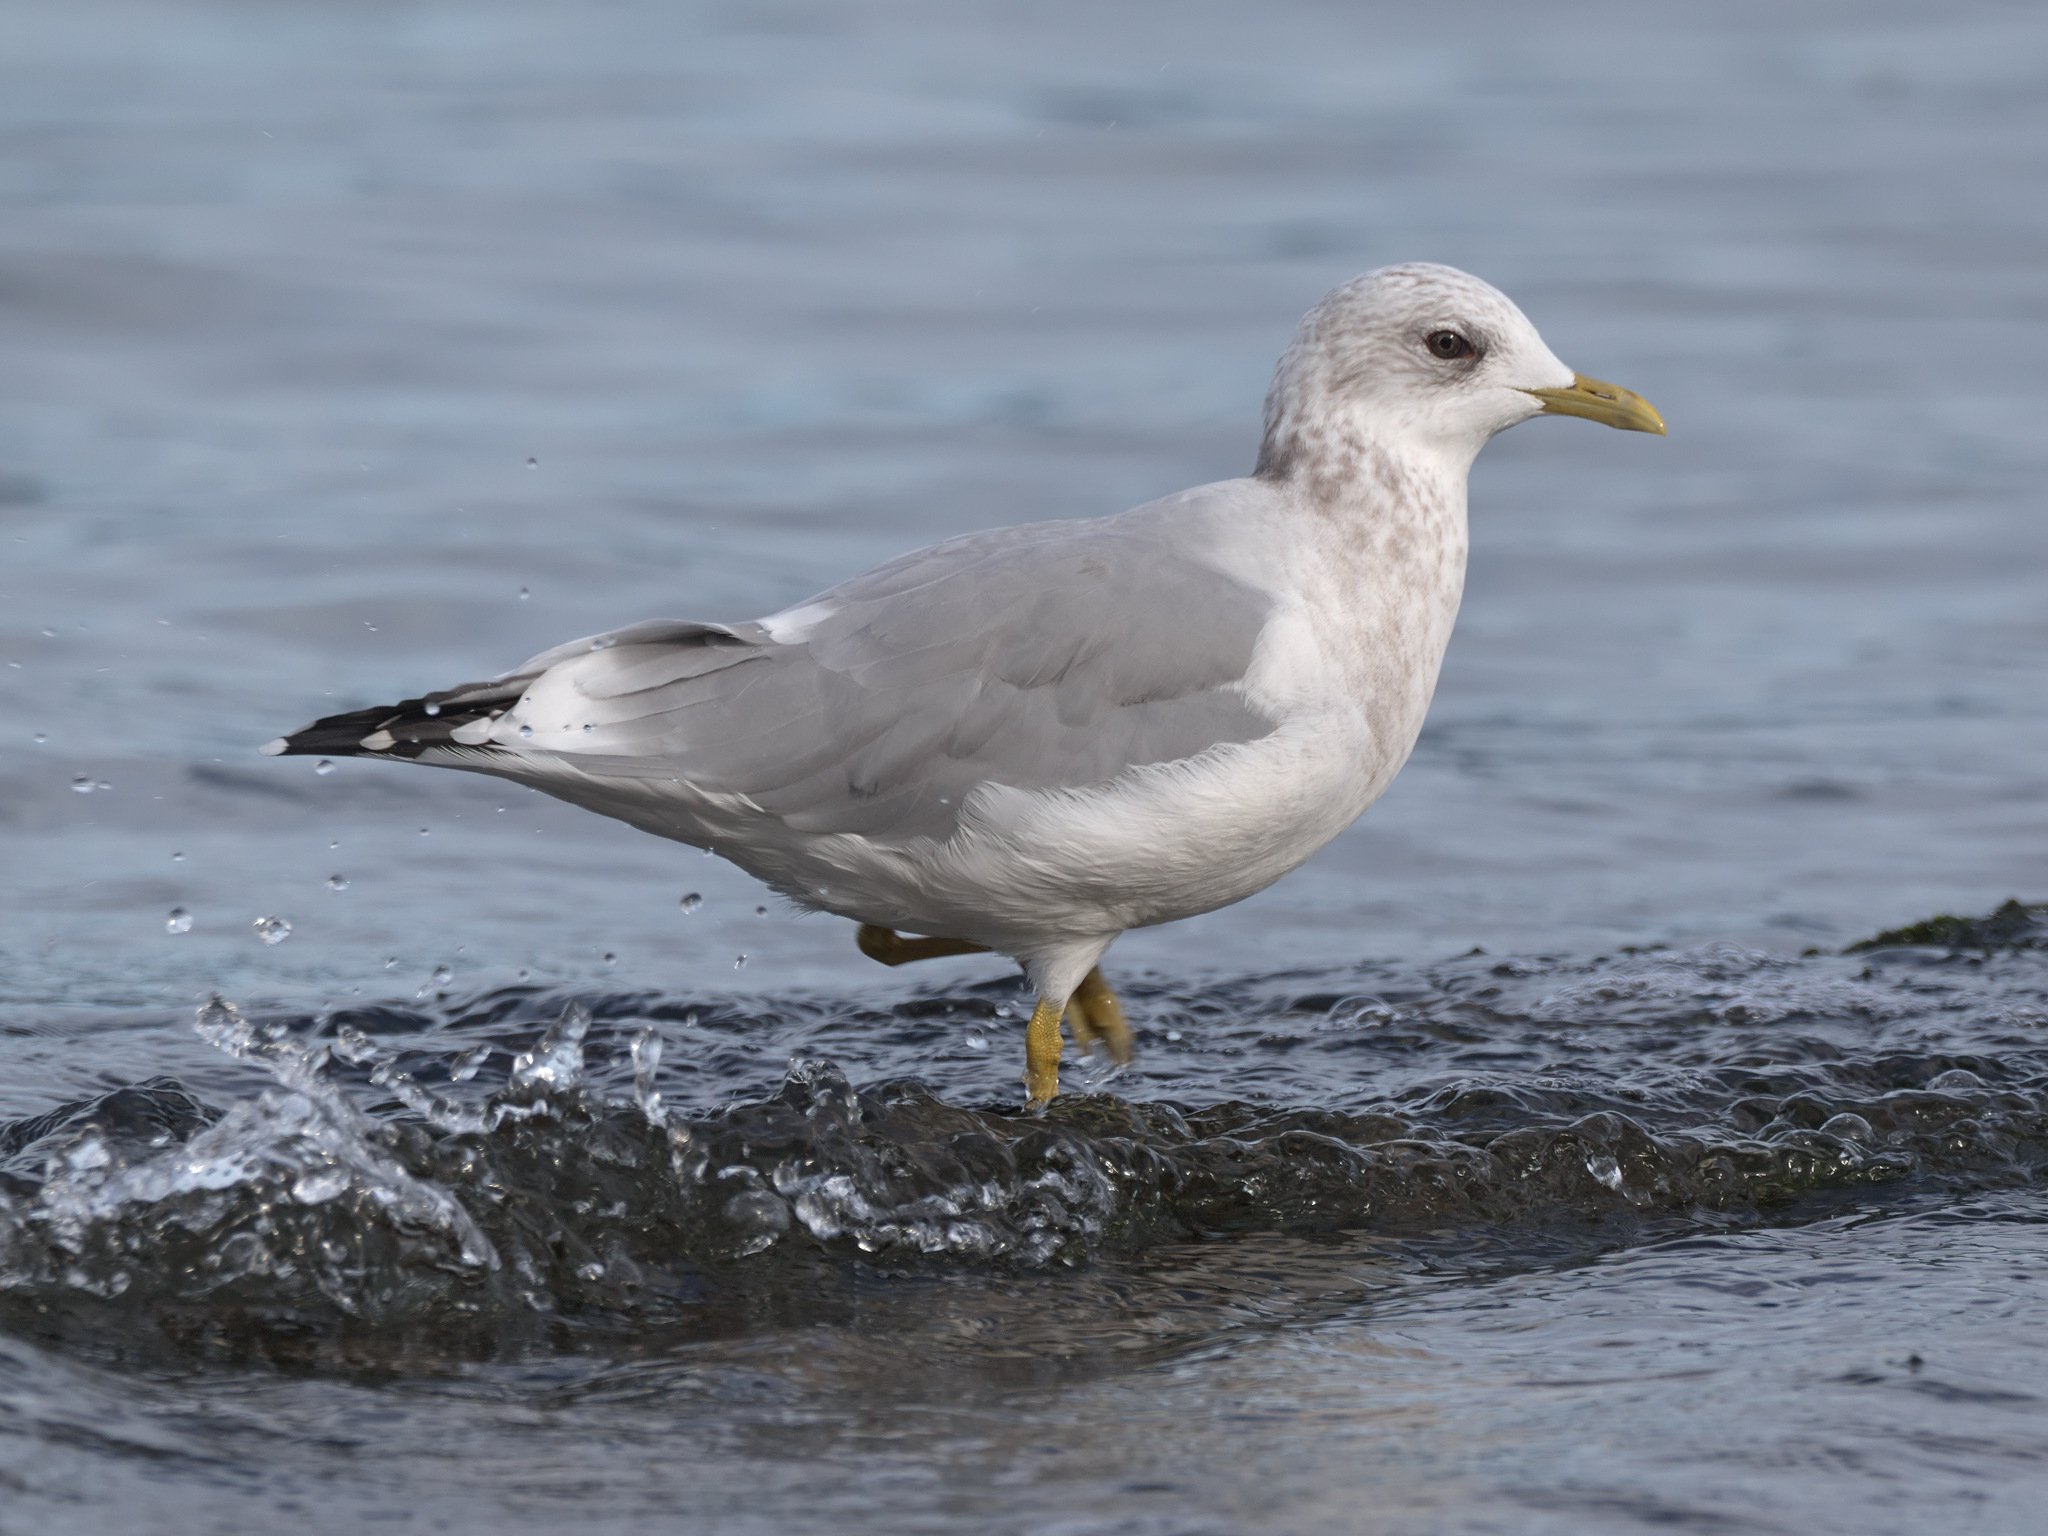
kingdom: Animalia
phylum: Chordata
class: Aves
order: Charadriiformes
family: Laridae
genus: Larus
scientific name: Larus brachyrhynchus
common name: Short-billed gull
